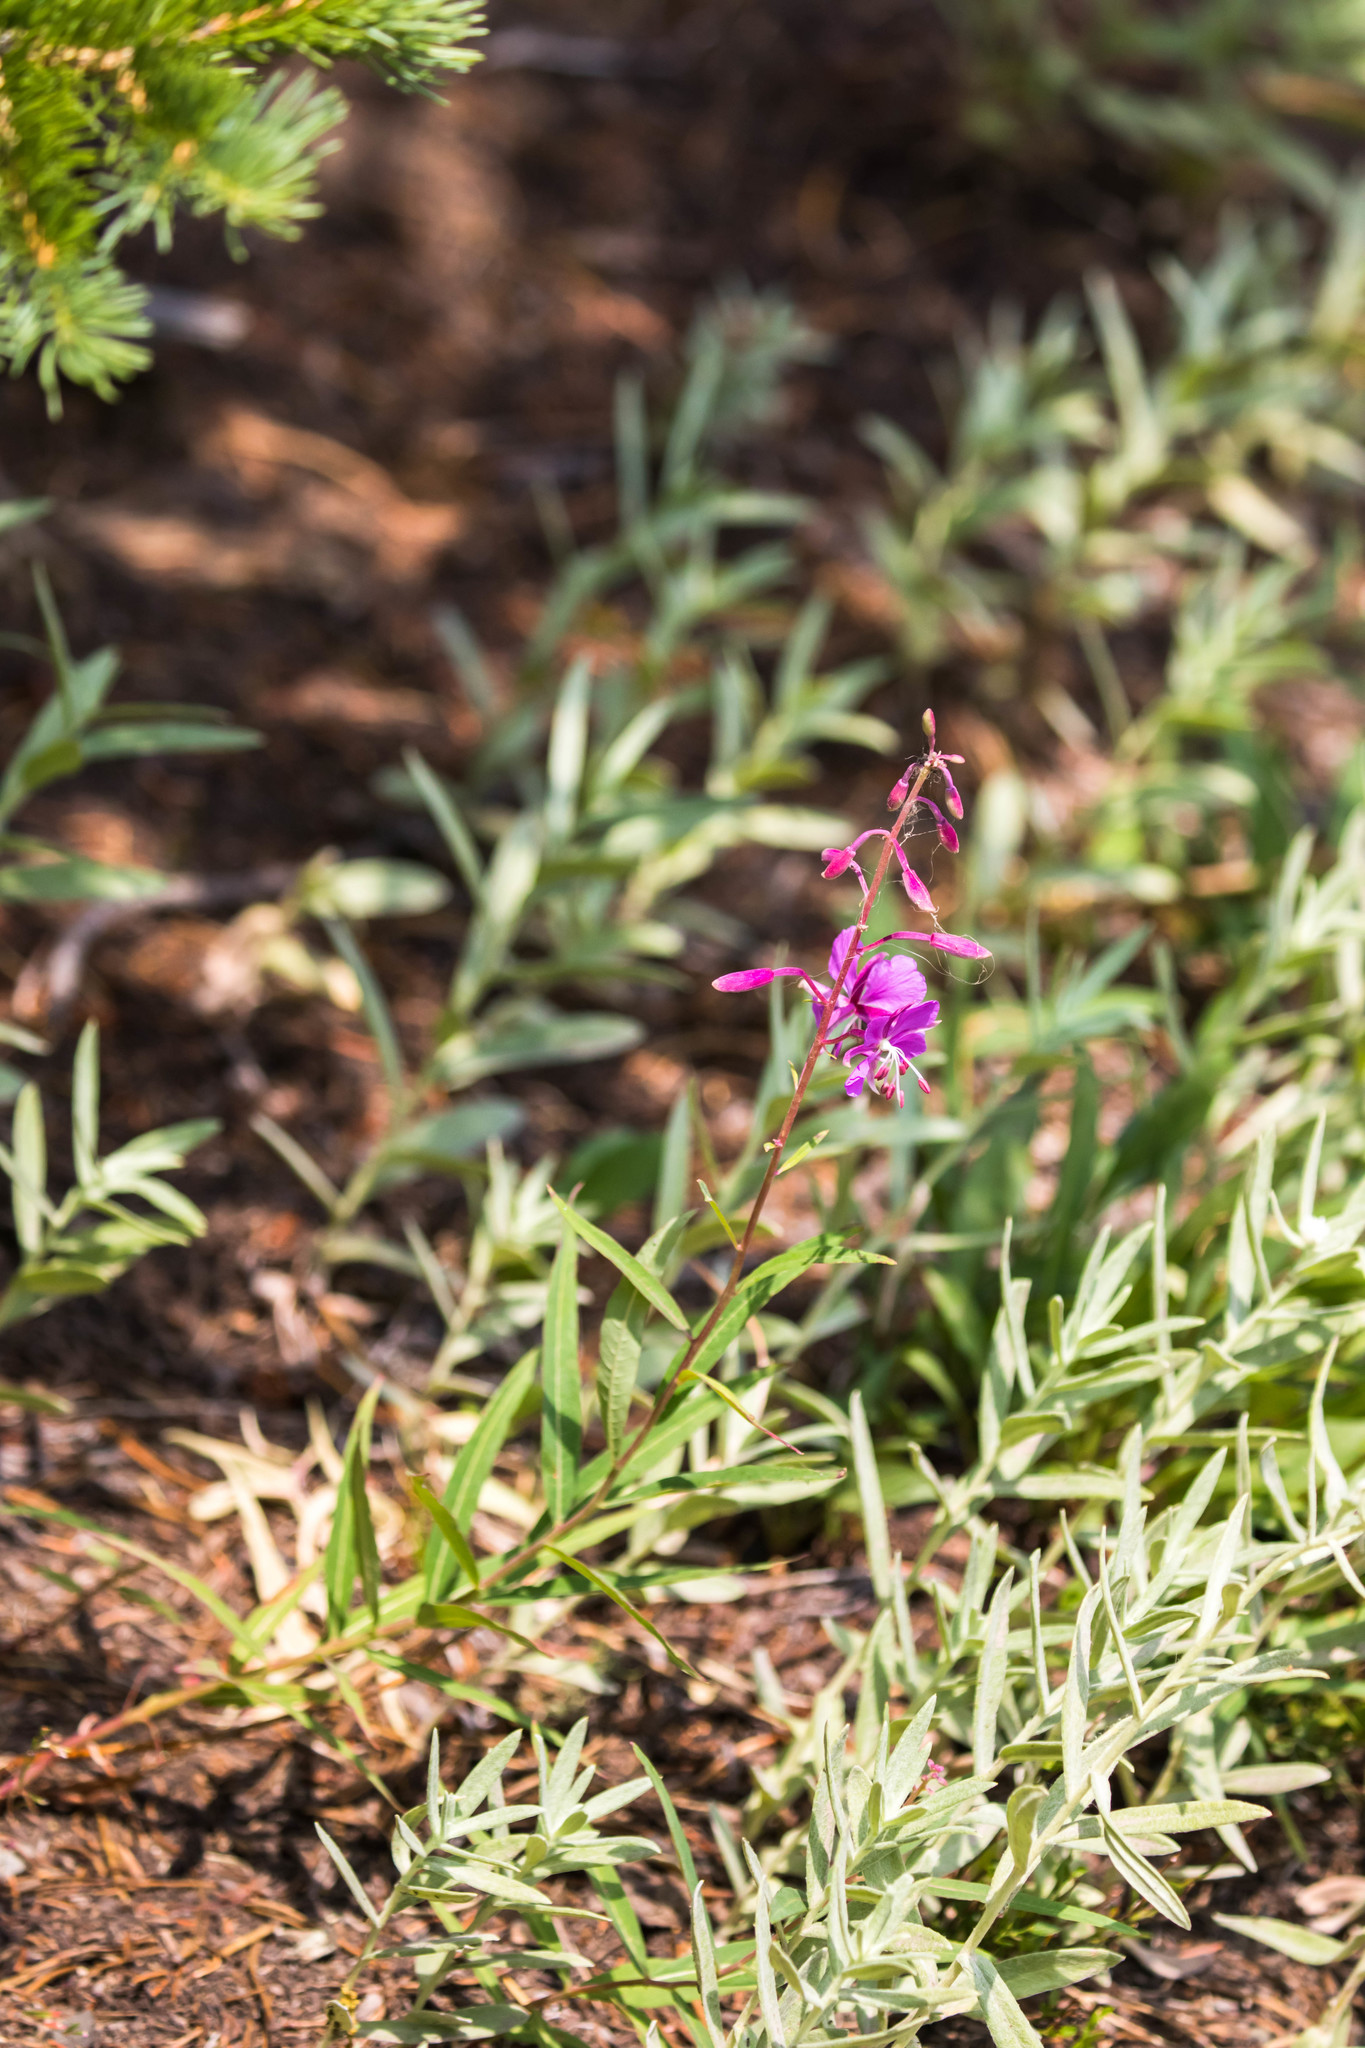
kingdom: Plantae
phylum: Tracheophyta
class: Magnoliopsida
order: Myrtales
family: Onagraceae
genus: Chamaenerion
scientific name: Chamaenerion angustifolium
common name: Fireweed
